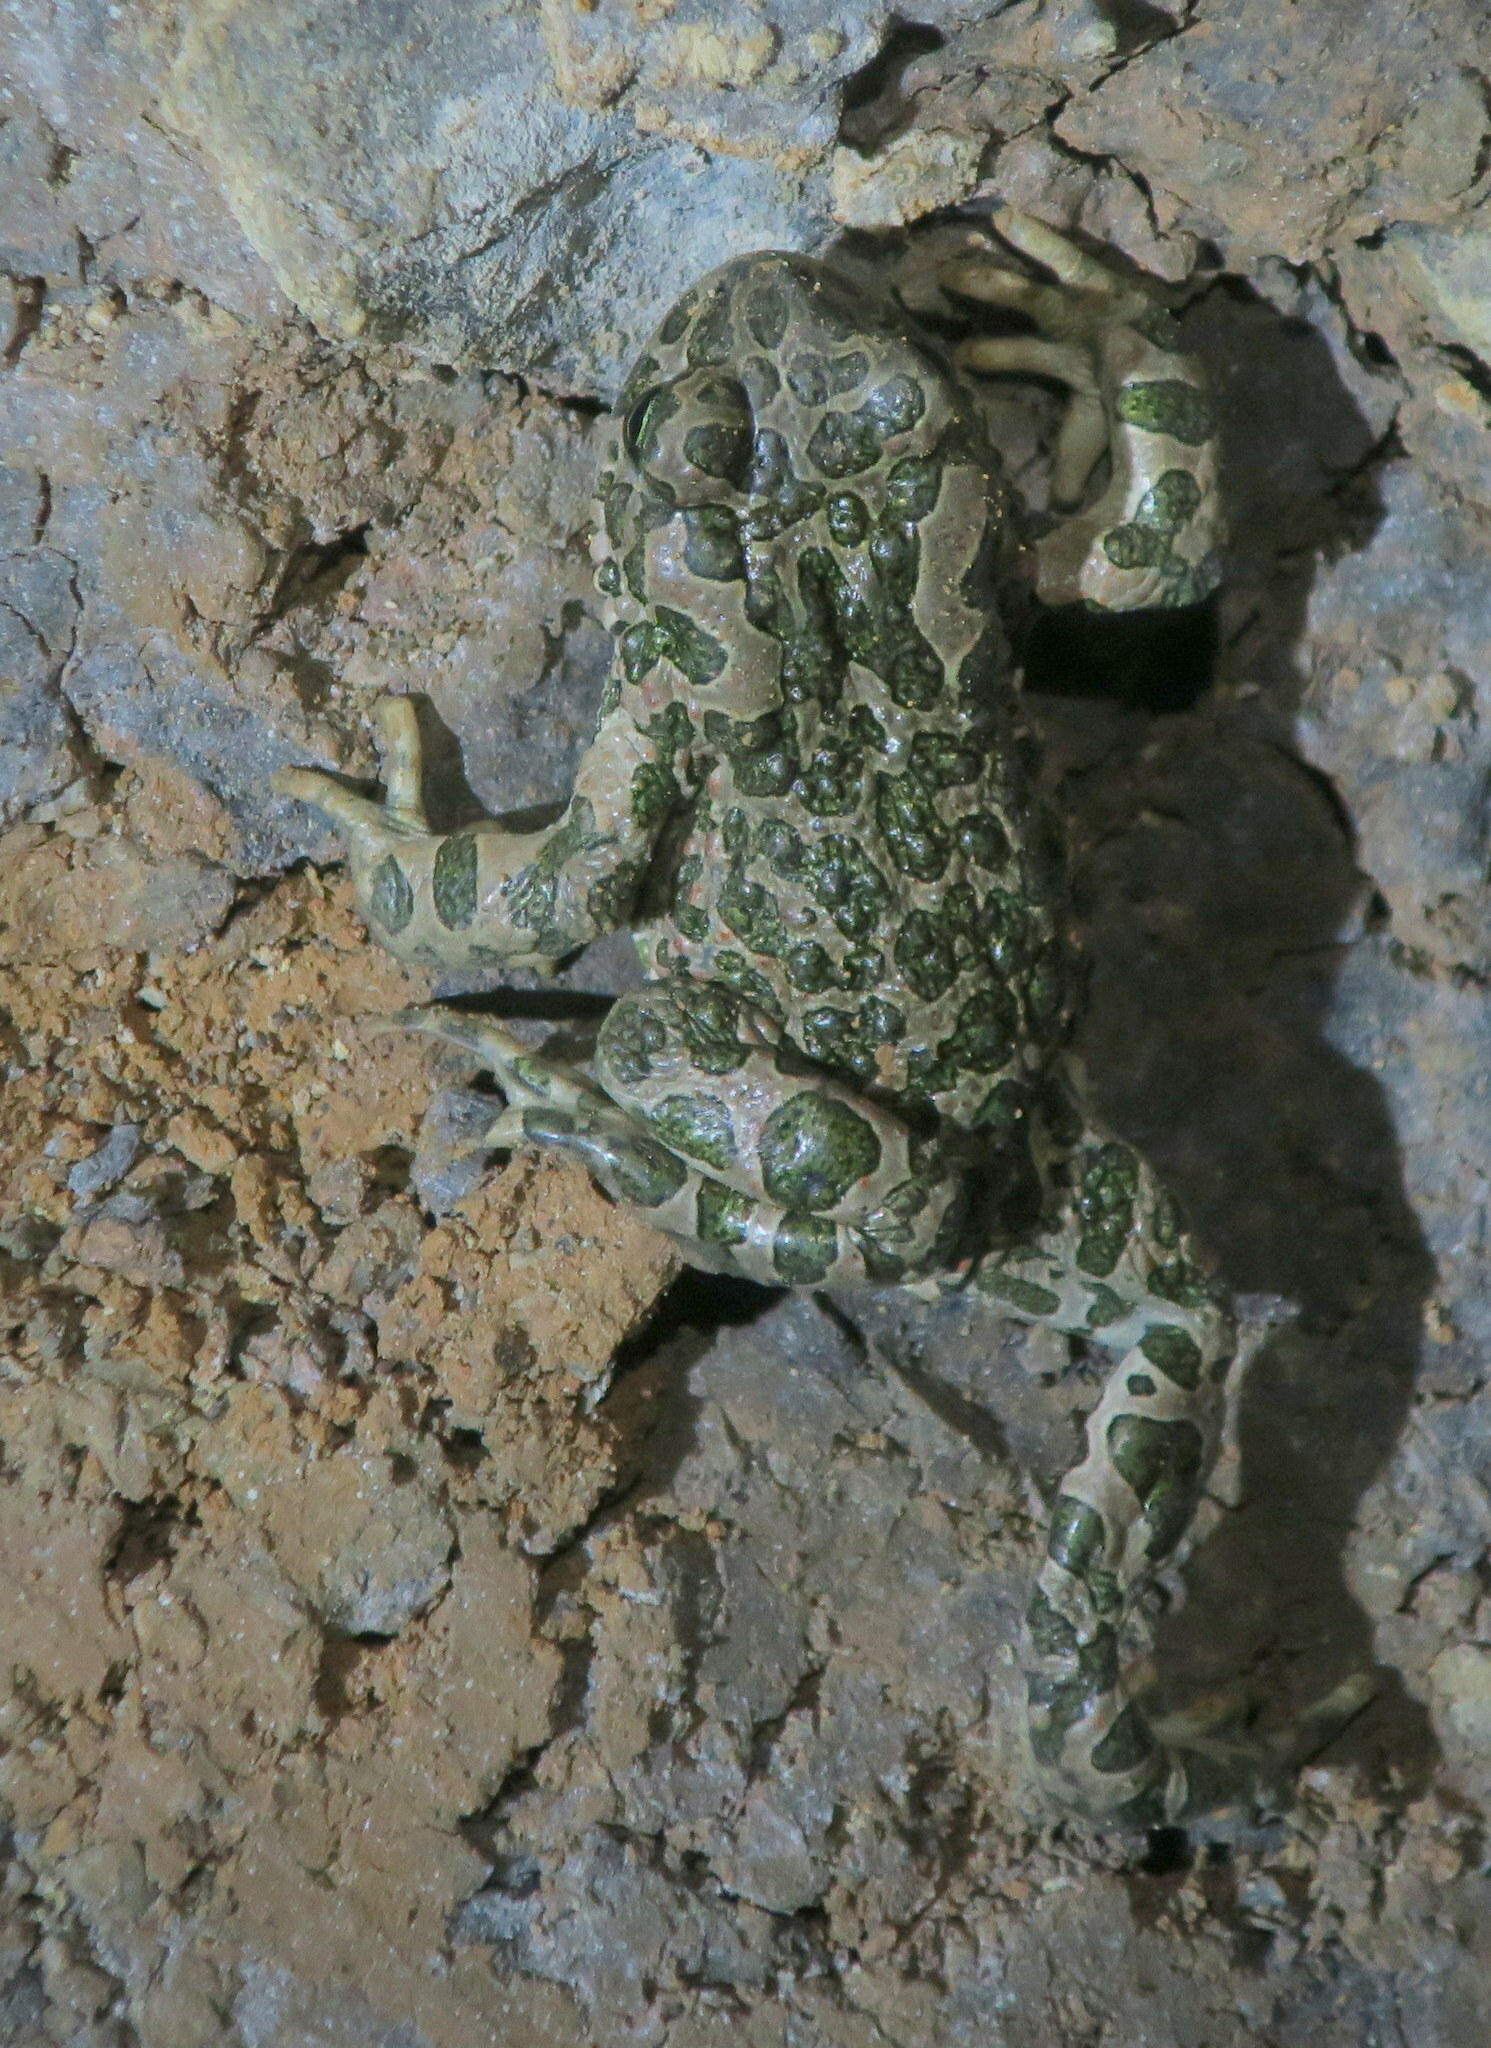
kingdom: Animalia
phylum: Chordata
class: Amphibia
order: Anura
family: Bufonidae
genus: Bufotes
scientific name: Bufotes viridis
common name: European green toad
